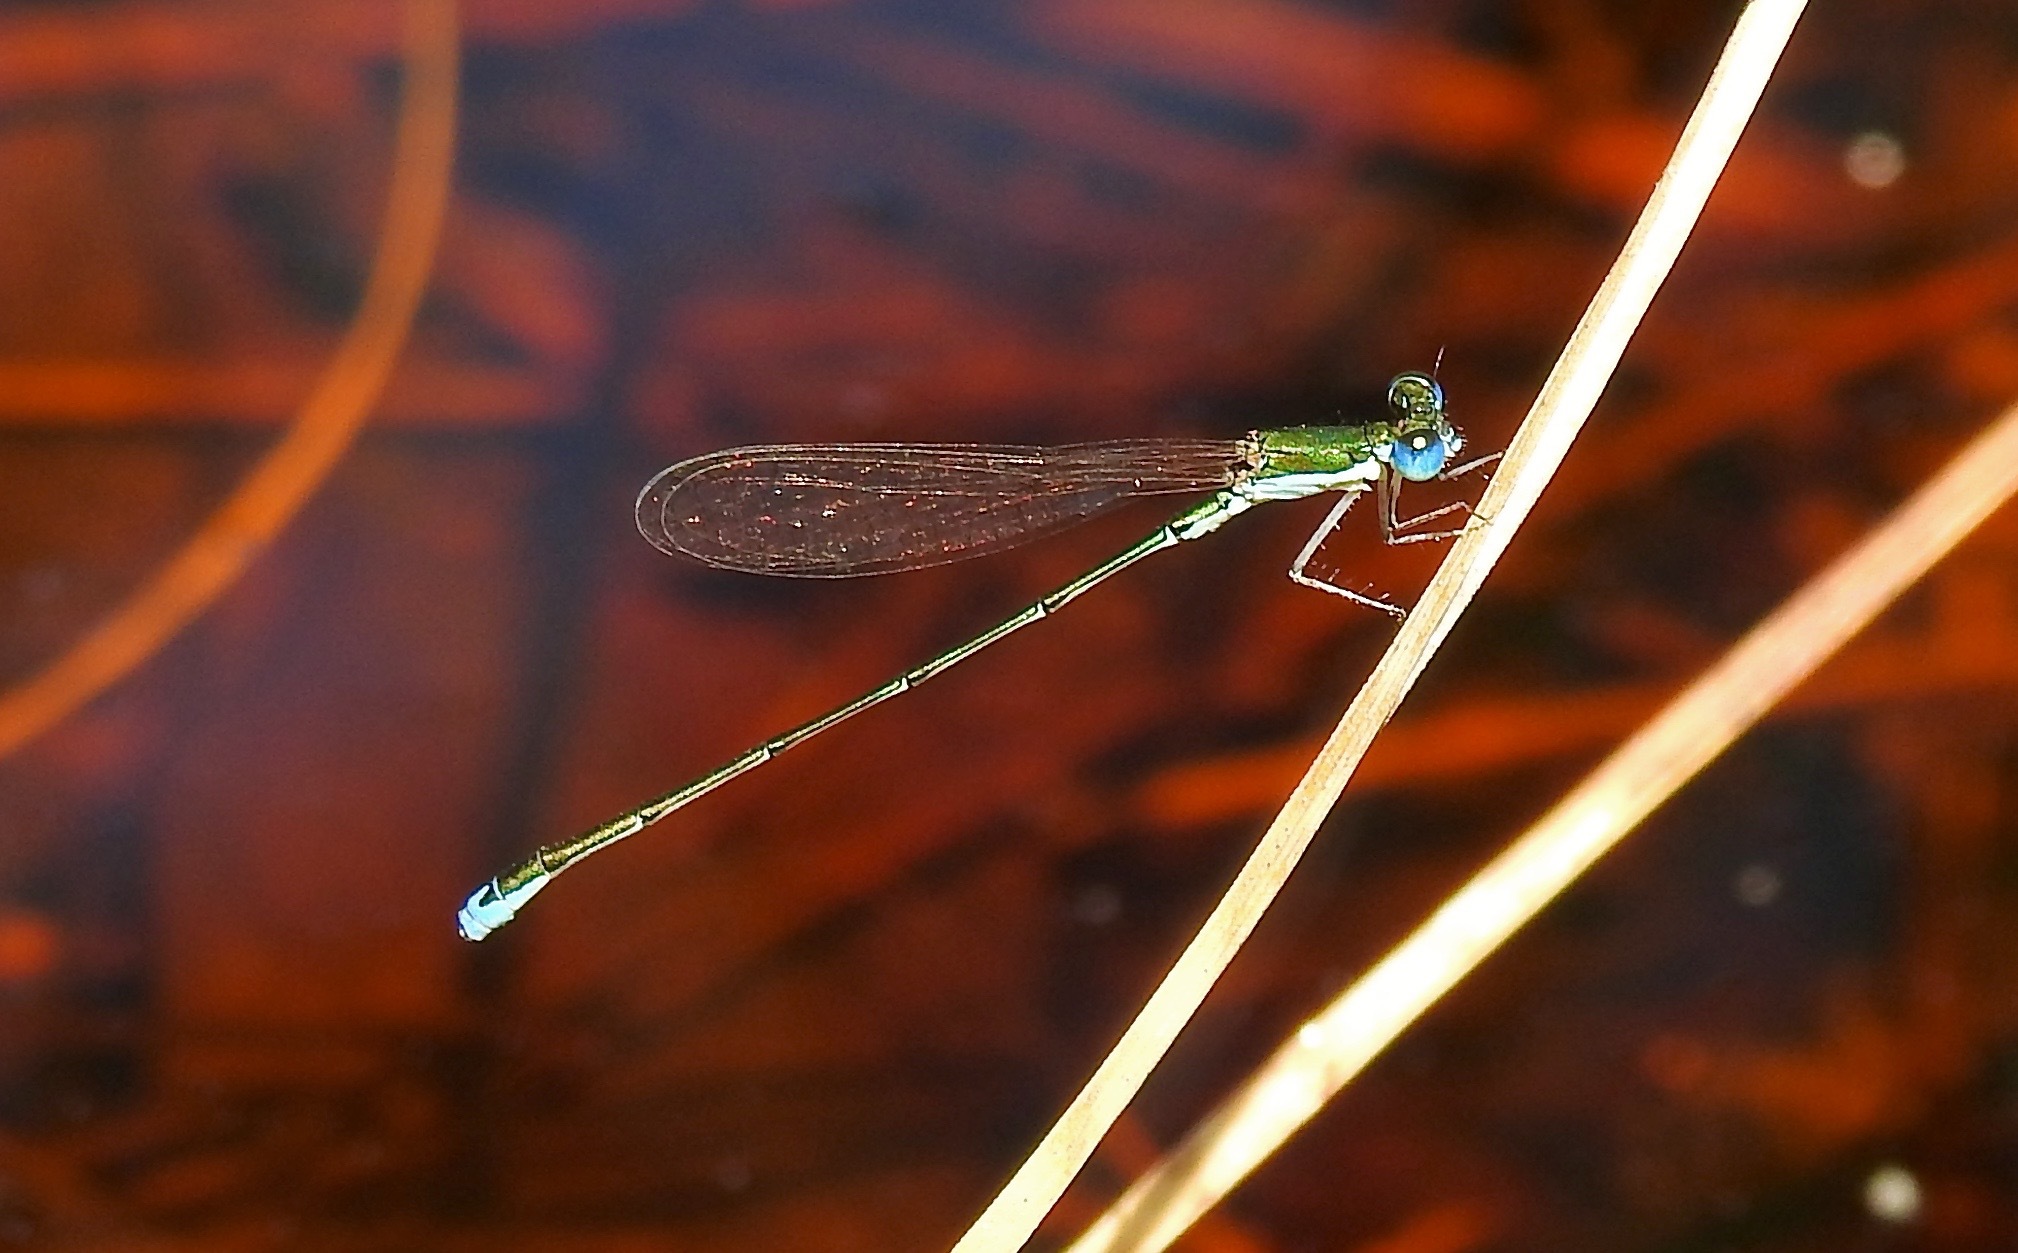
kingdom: Animalia
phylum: Arthropoda
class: Insecta
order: Odonata
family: Coenagrionidae
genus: Nehalennia
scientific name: Nehalennia integricollis
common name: Southern sprite
